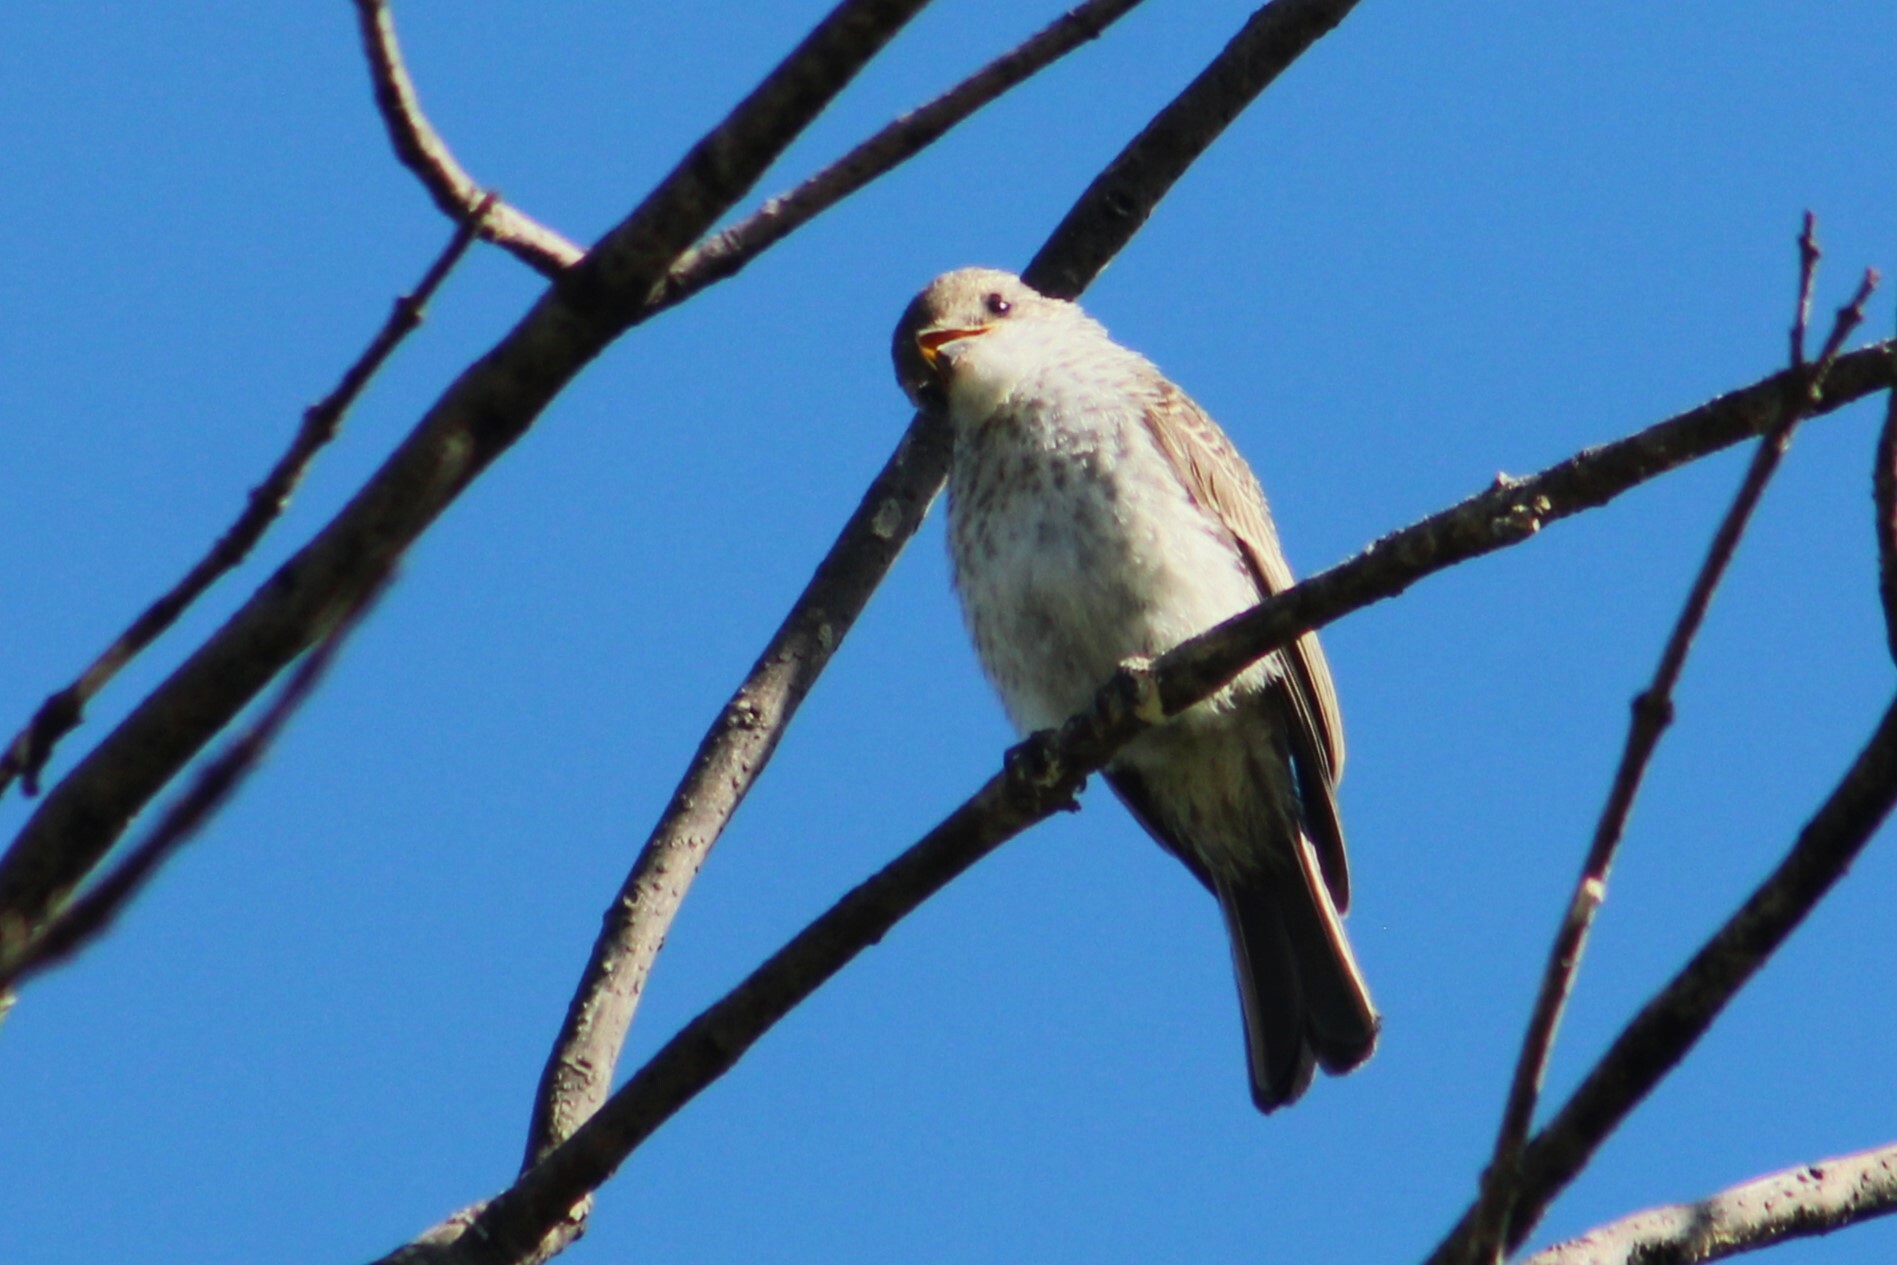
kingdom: Animalia
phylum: Chordata
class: Aves
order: Passeriformes
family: Tyrannidae
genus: Pyrocephalus
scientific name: Pyrocephalus rubinus
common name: Vermilion flycatcher
